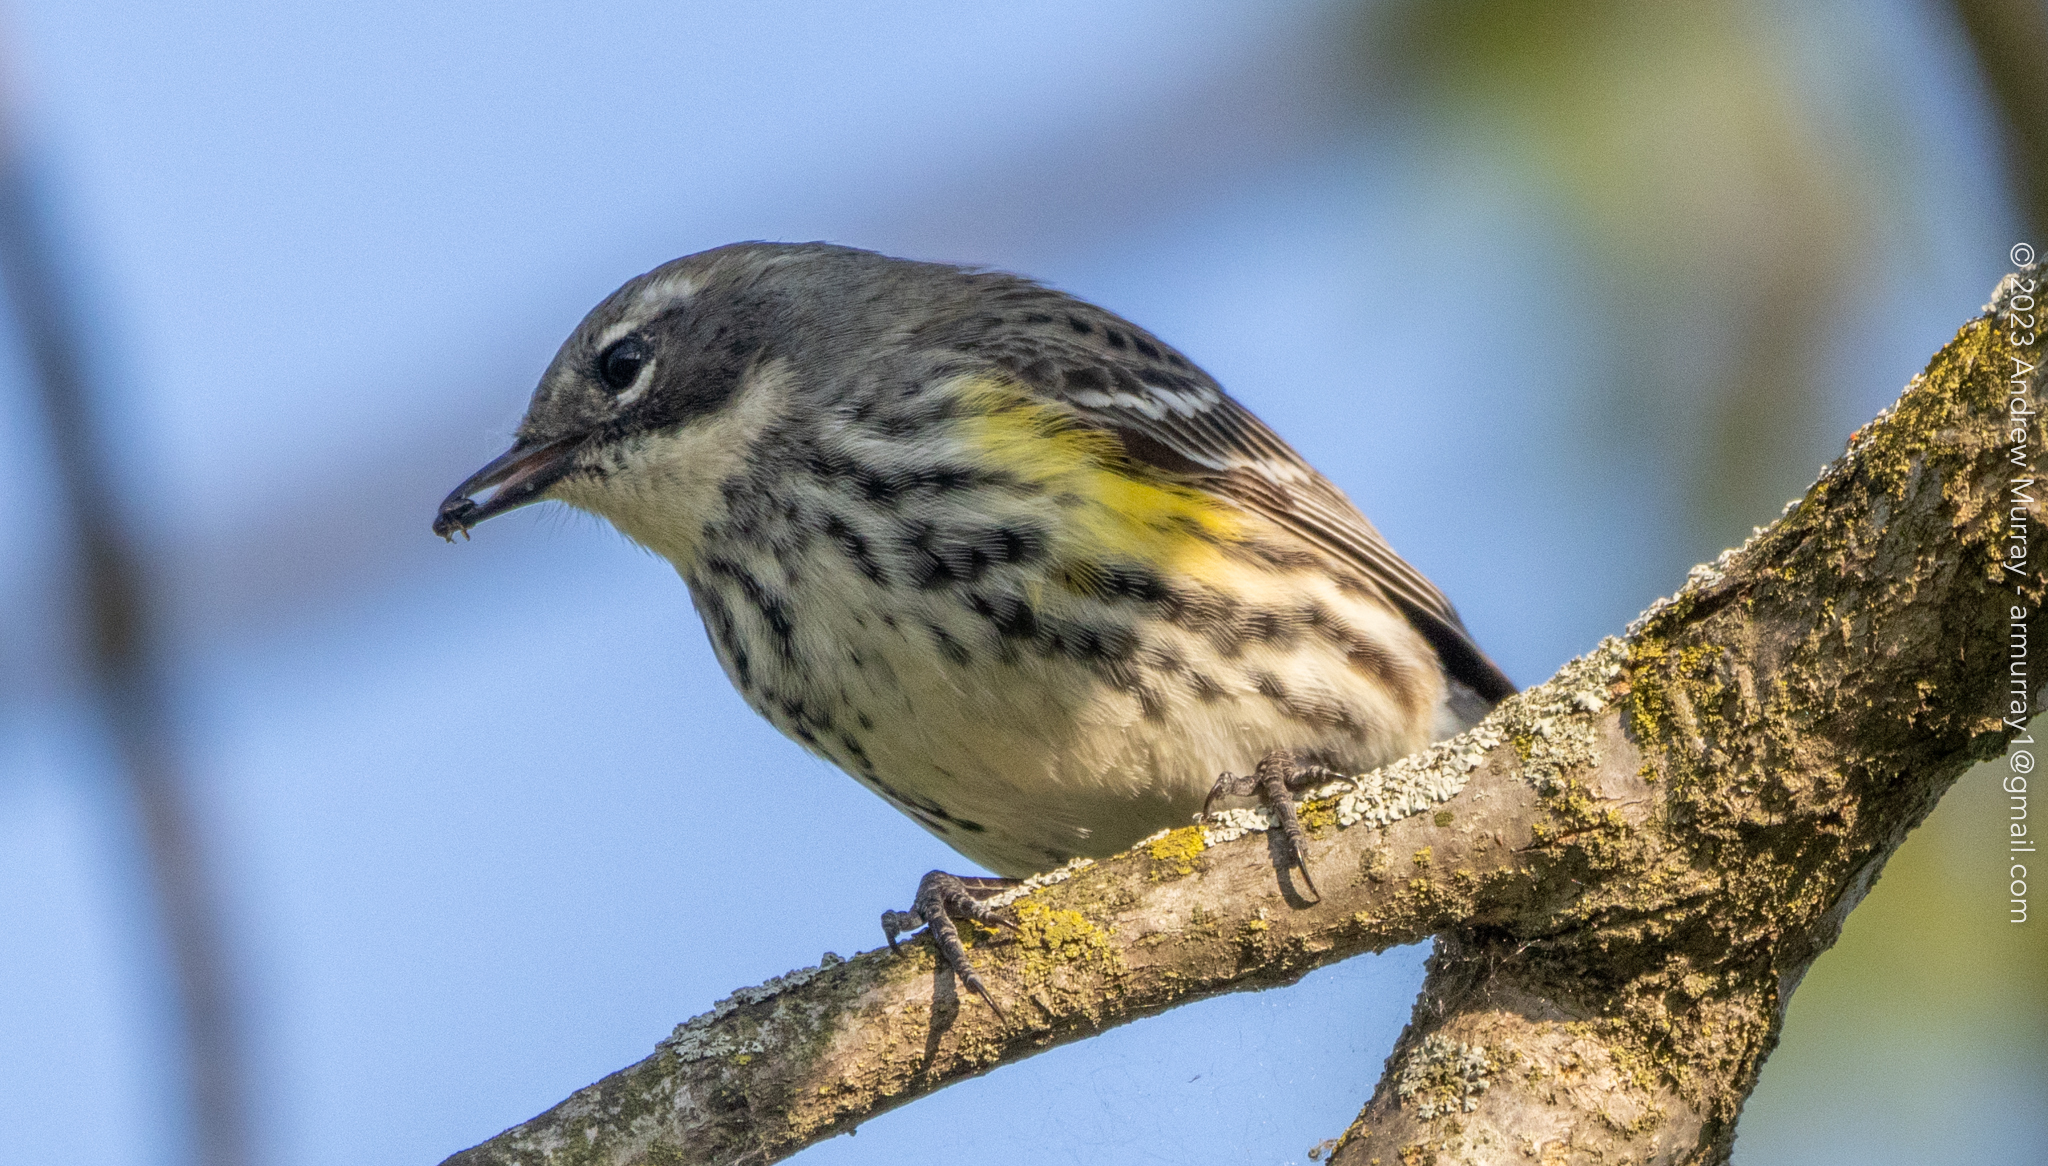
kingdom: Animalia
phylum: Chordata
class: Aves
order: Passeriformes
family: Parulidae
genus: Setophaga
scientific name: Setophaga coronata
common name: Myrtle warbler
